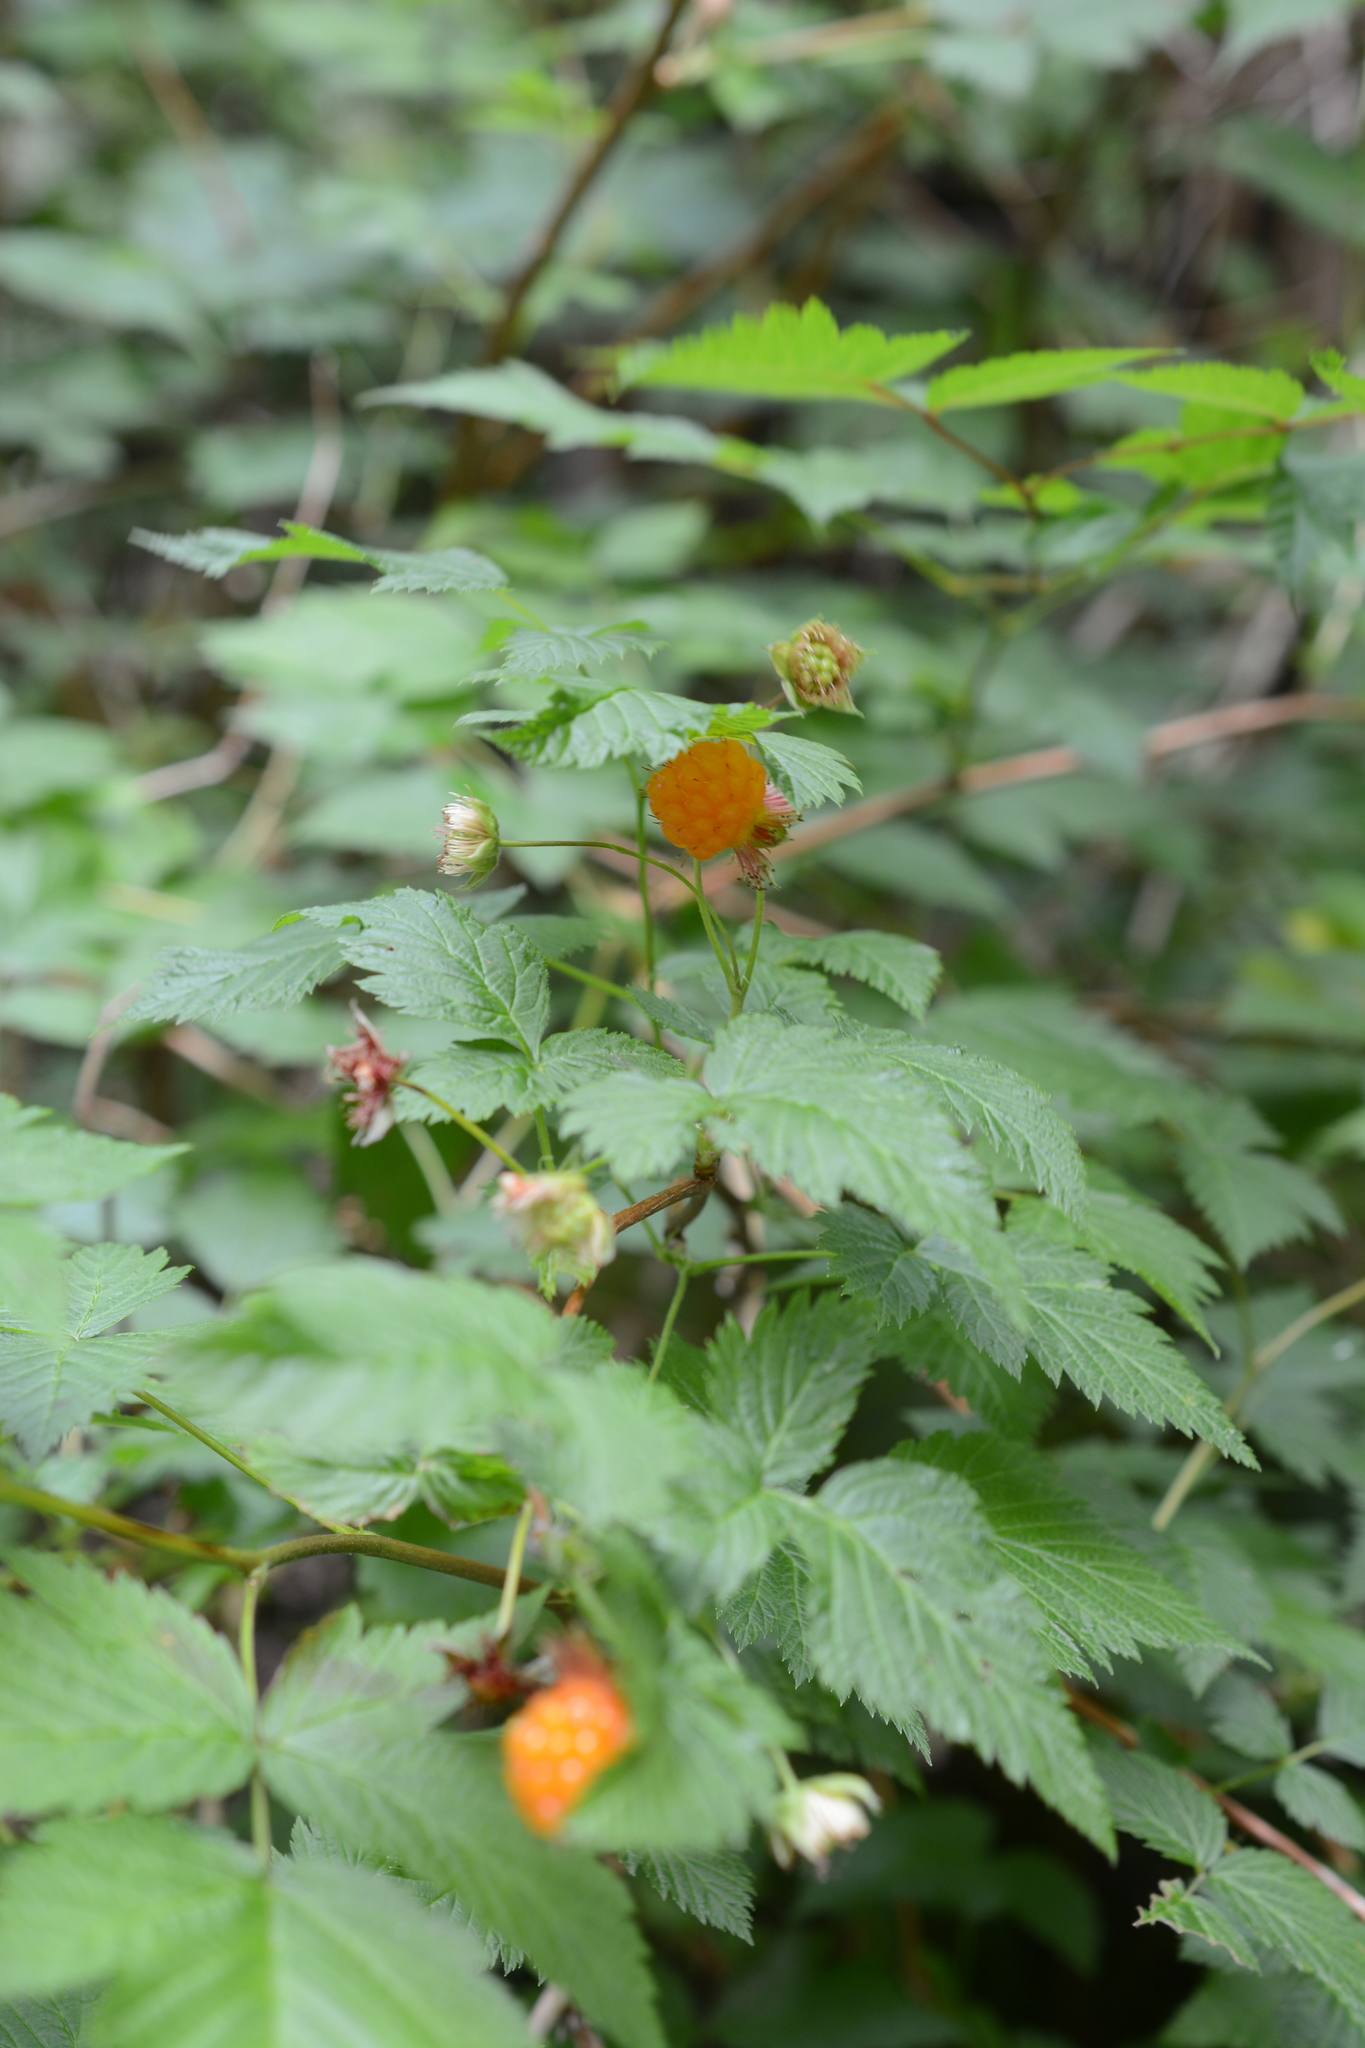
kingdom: Plantae
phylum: Tracheophyta
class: Magnoliopsida
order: Rosales
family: Rosaceae
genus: Rubus
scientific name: Rubus spectabilis
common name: Salmonberry
